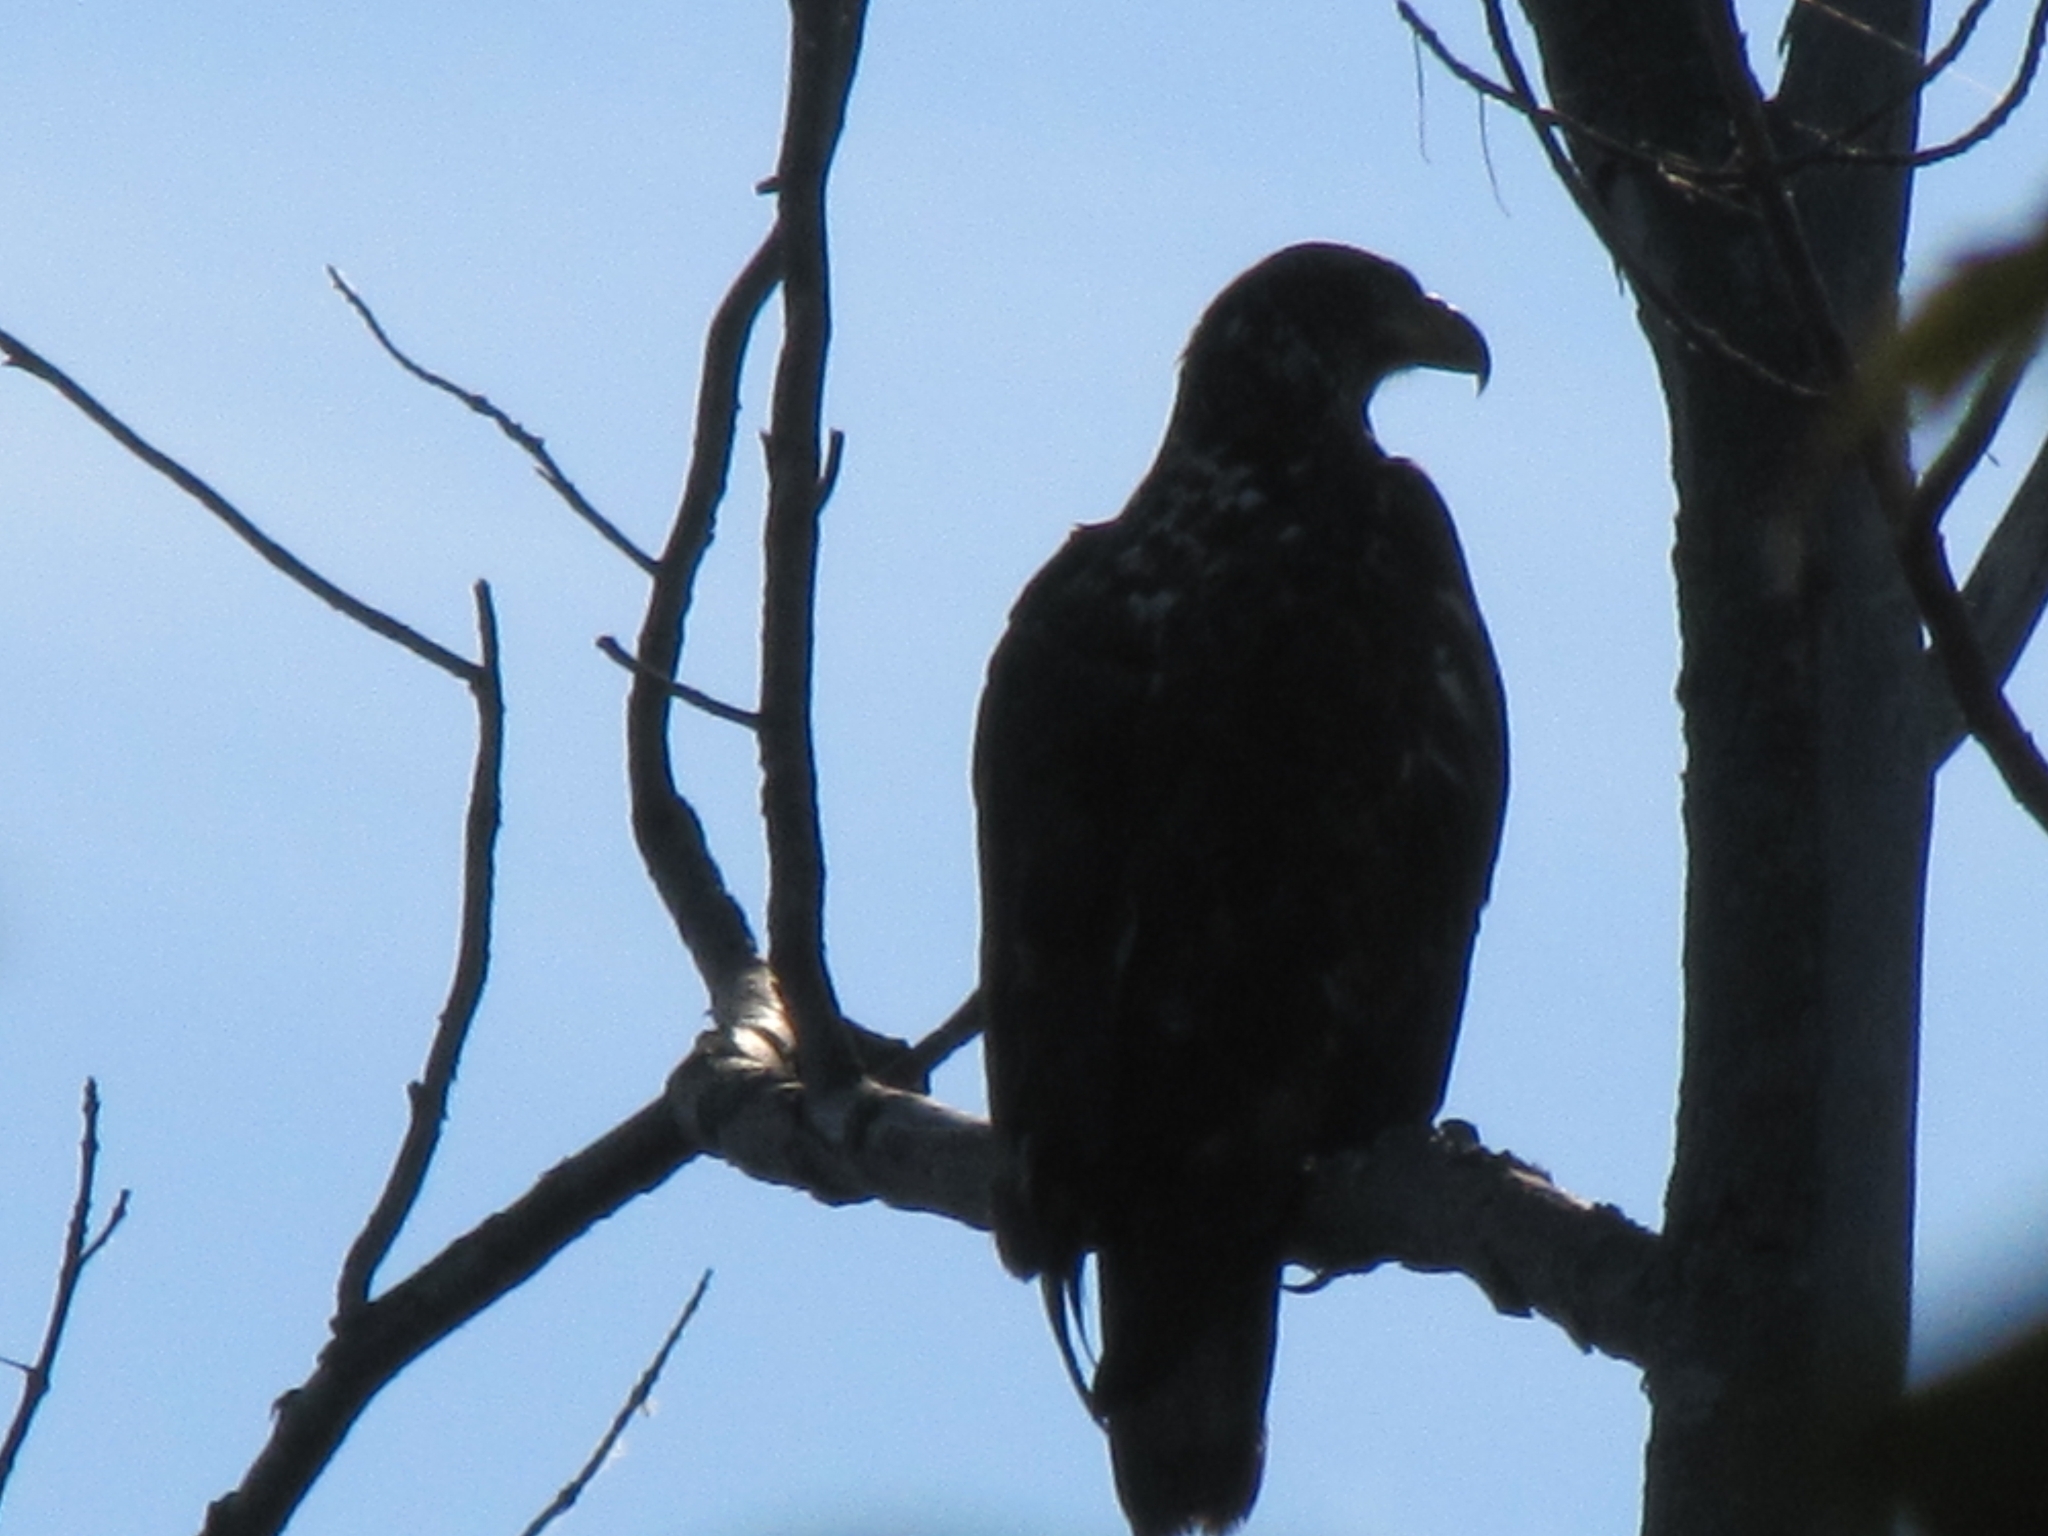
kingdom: Animalia
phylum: Chordata
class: Aves
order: Accipitriformes
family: Accipitridae
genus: Haliaeetus
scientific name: Haliaeetus leucocephalus
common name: Bald eagle
